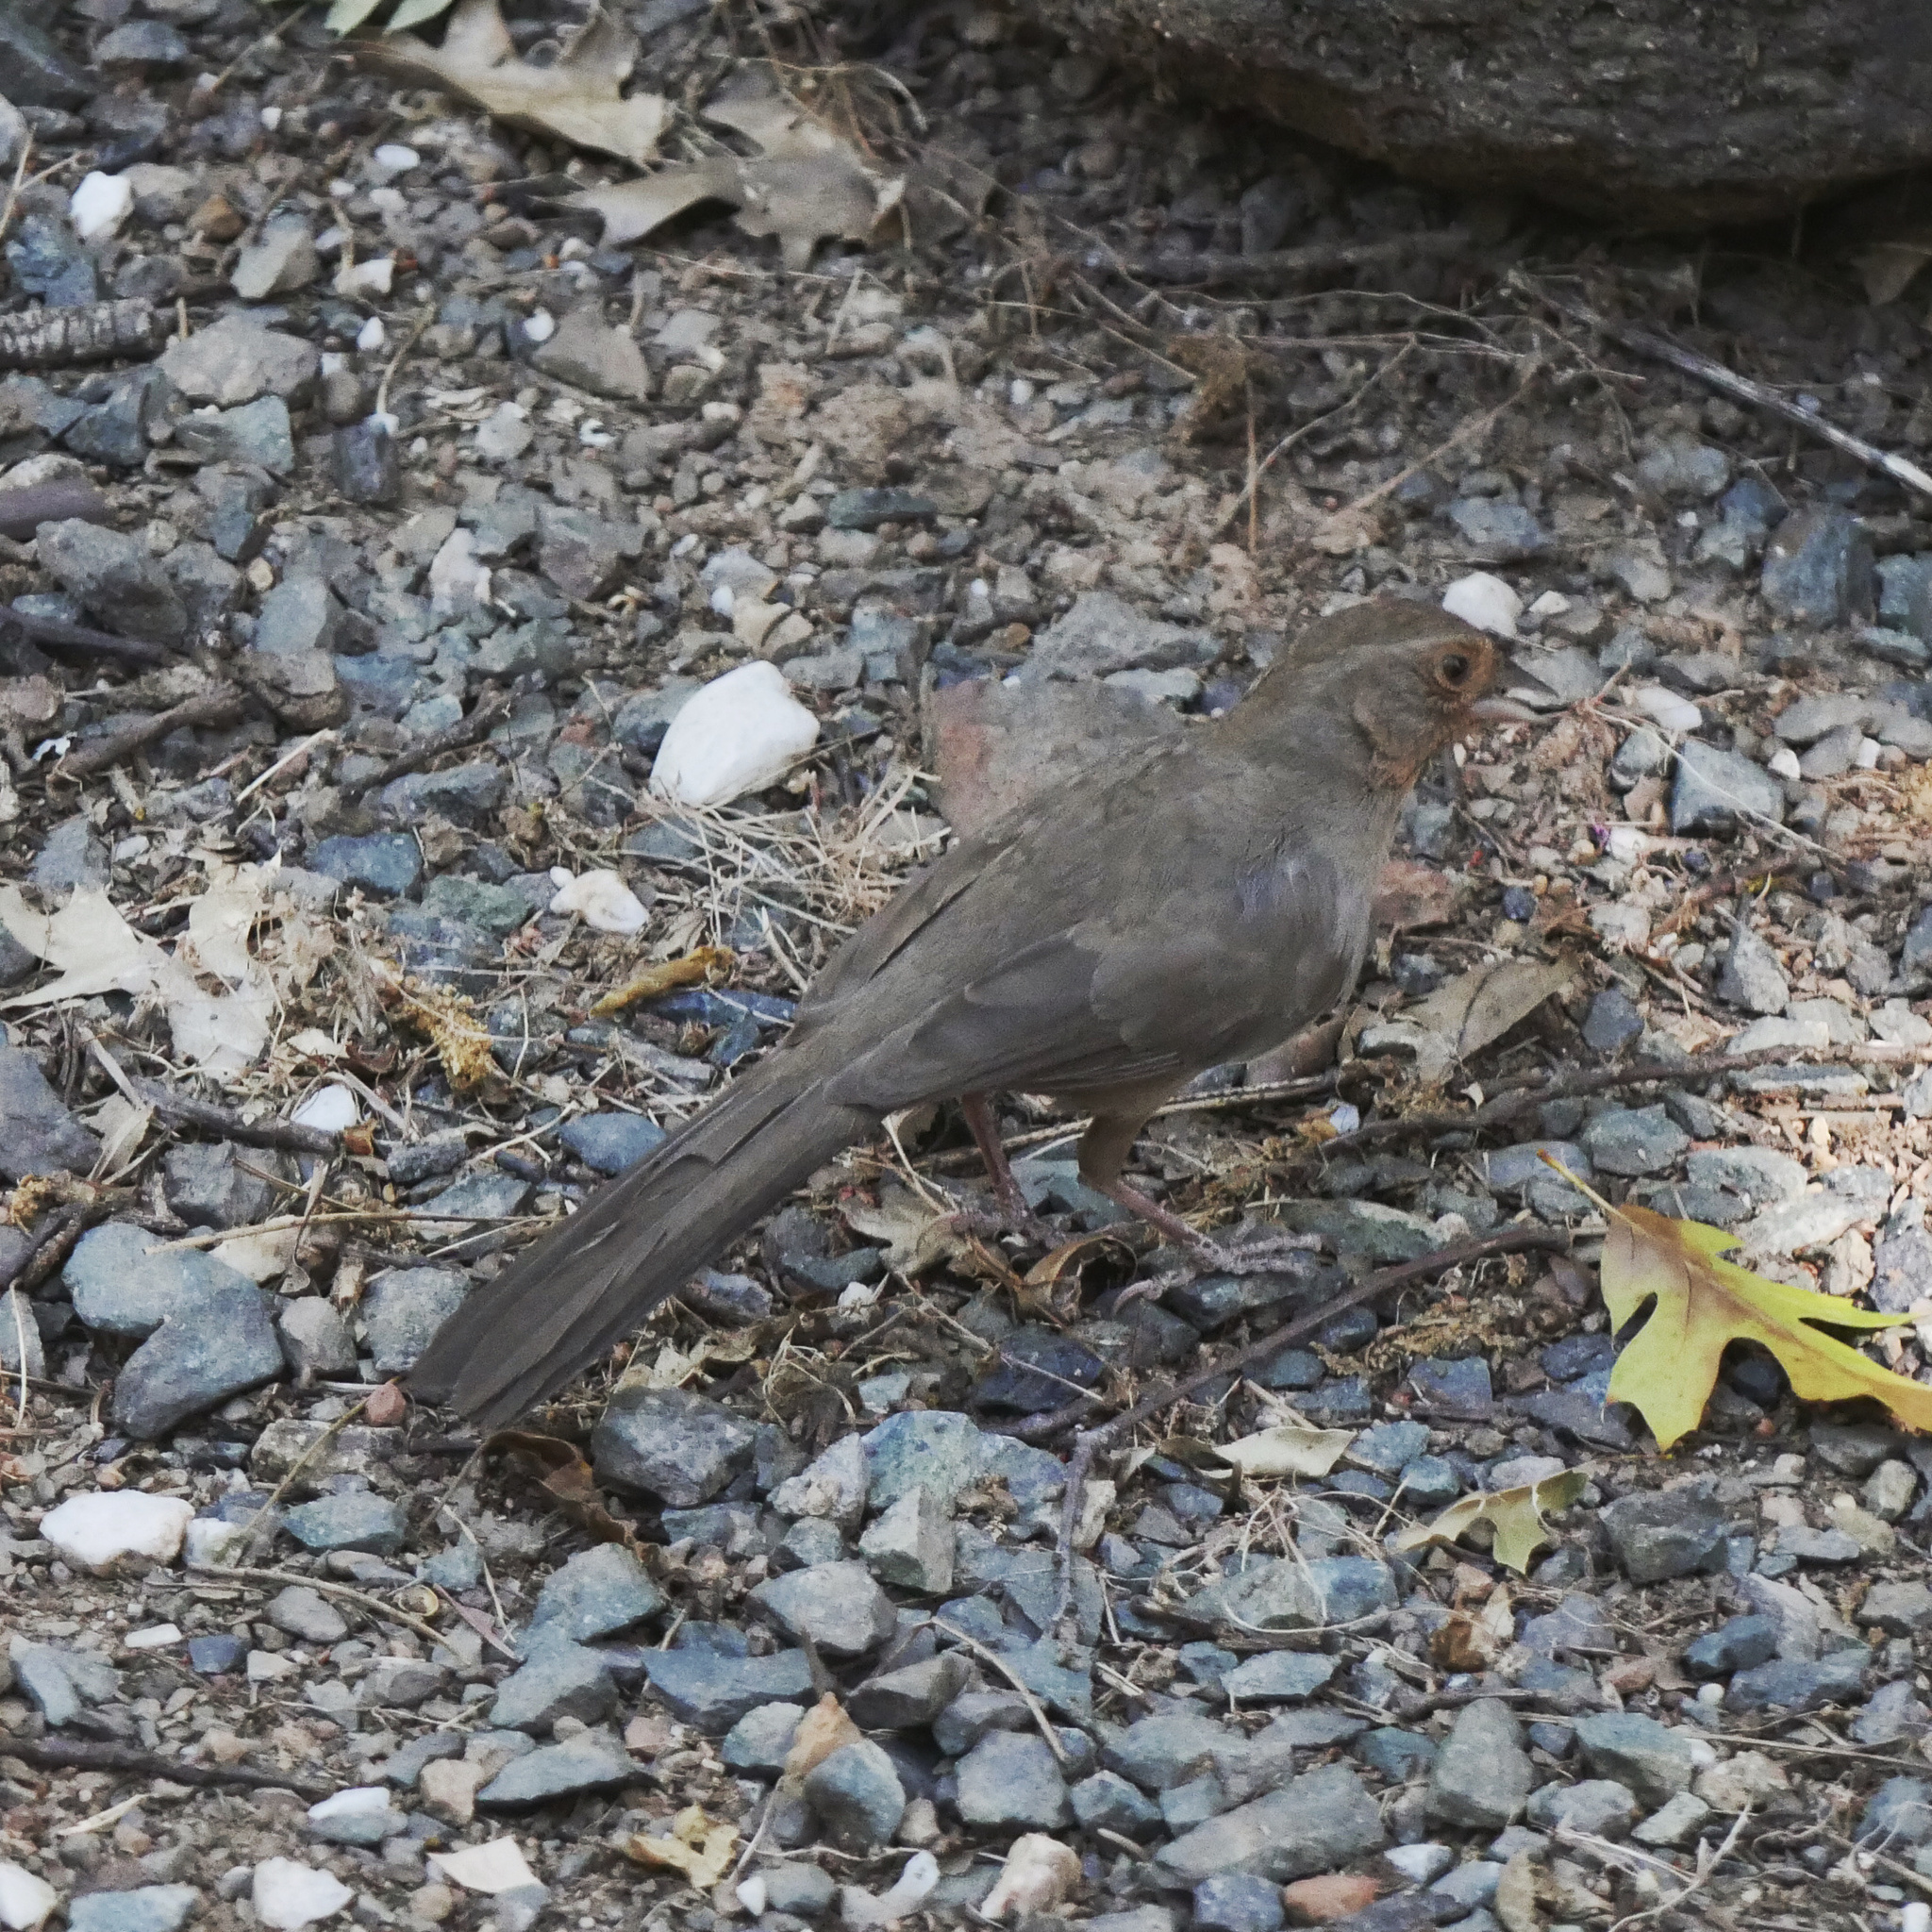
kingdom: Animalia
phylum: Chordata
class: Aves
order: Passeriformes
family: Passerellidae
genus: Melozone
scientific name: Melozone crissalis
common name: California towhee
